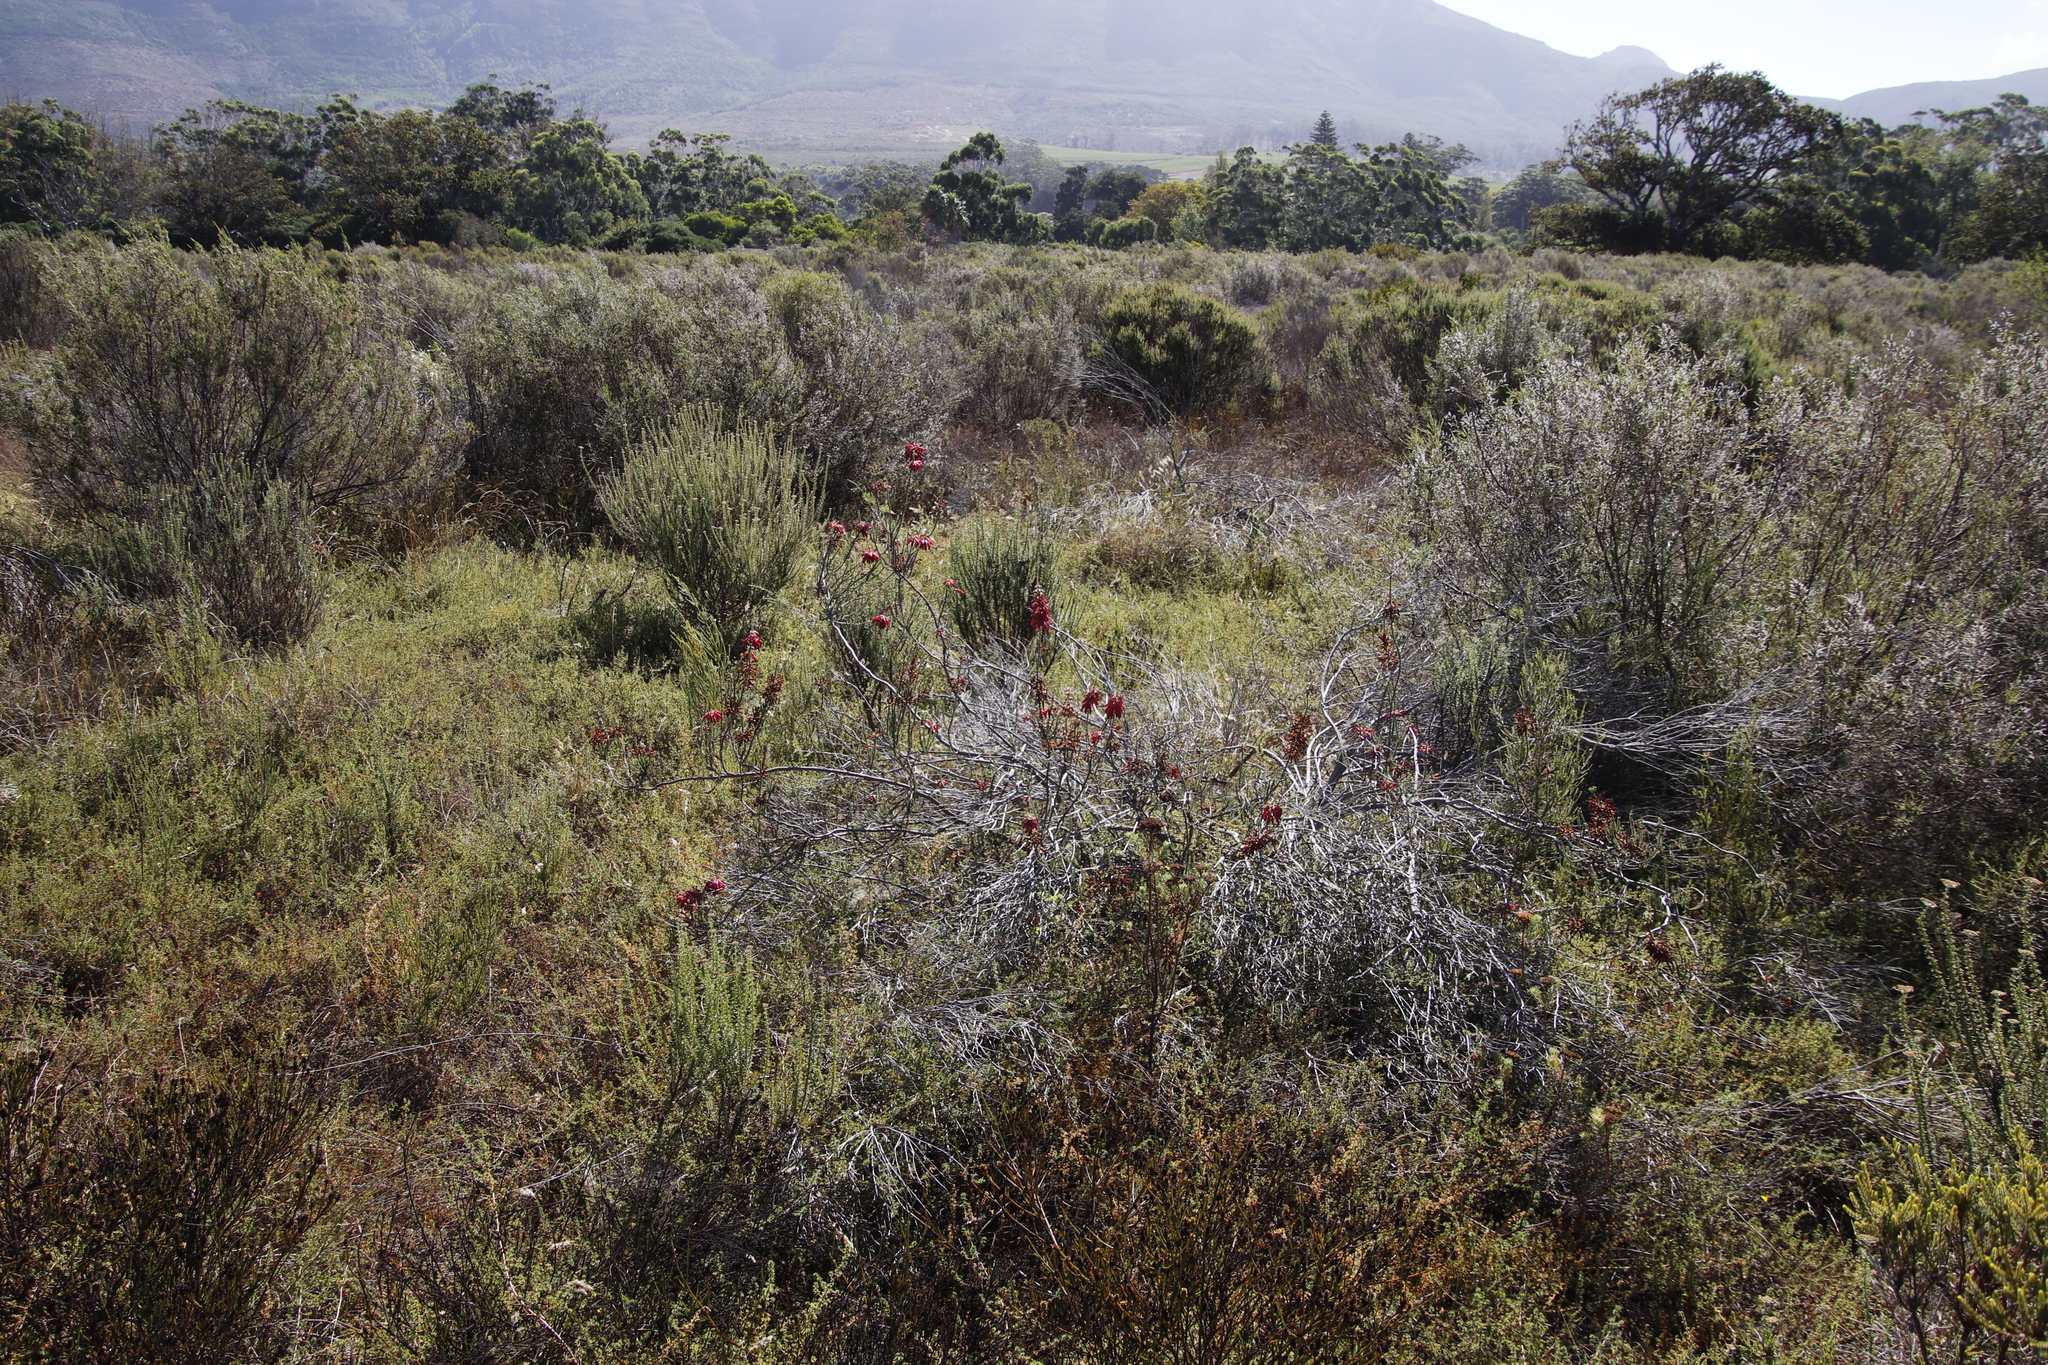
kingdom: Plantae
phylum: Tracheophyta
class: Magnoliopsida
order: Ericales
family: Ericaceae
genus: Erica
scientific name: Erica mammosa
